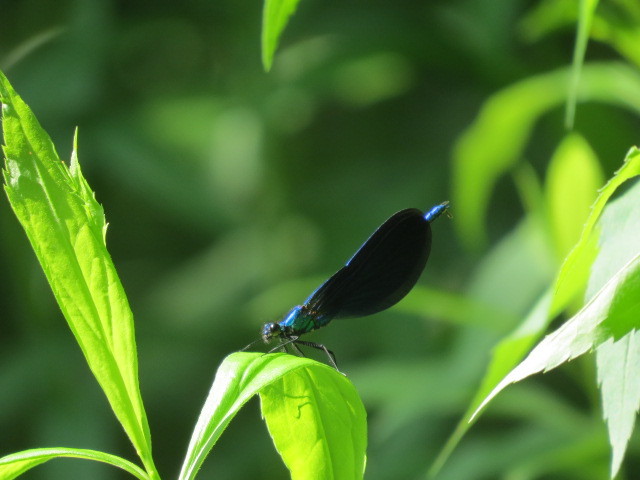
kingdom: Animalia
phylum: Arthropoda
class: Insecta
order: Odonata
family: Calopterygidae
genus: Calopteryx
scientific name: Calopteryx virgo
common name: Beautiful demoiselle
